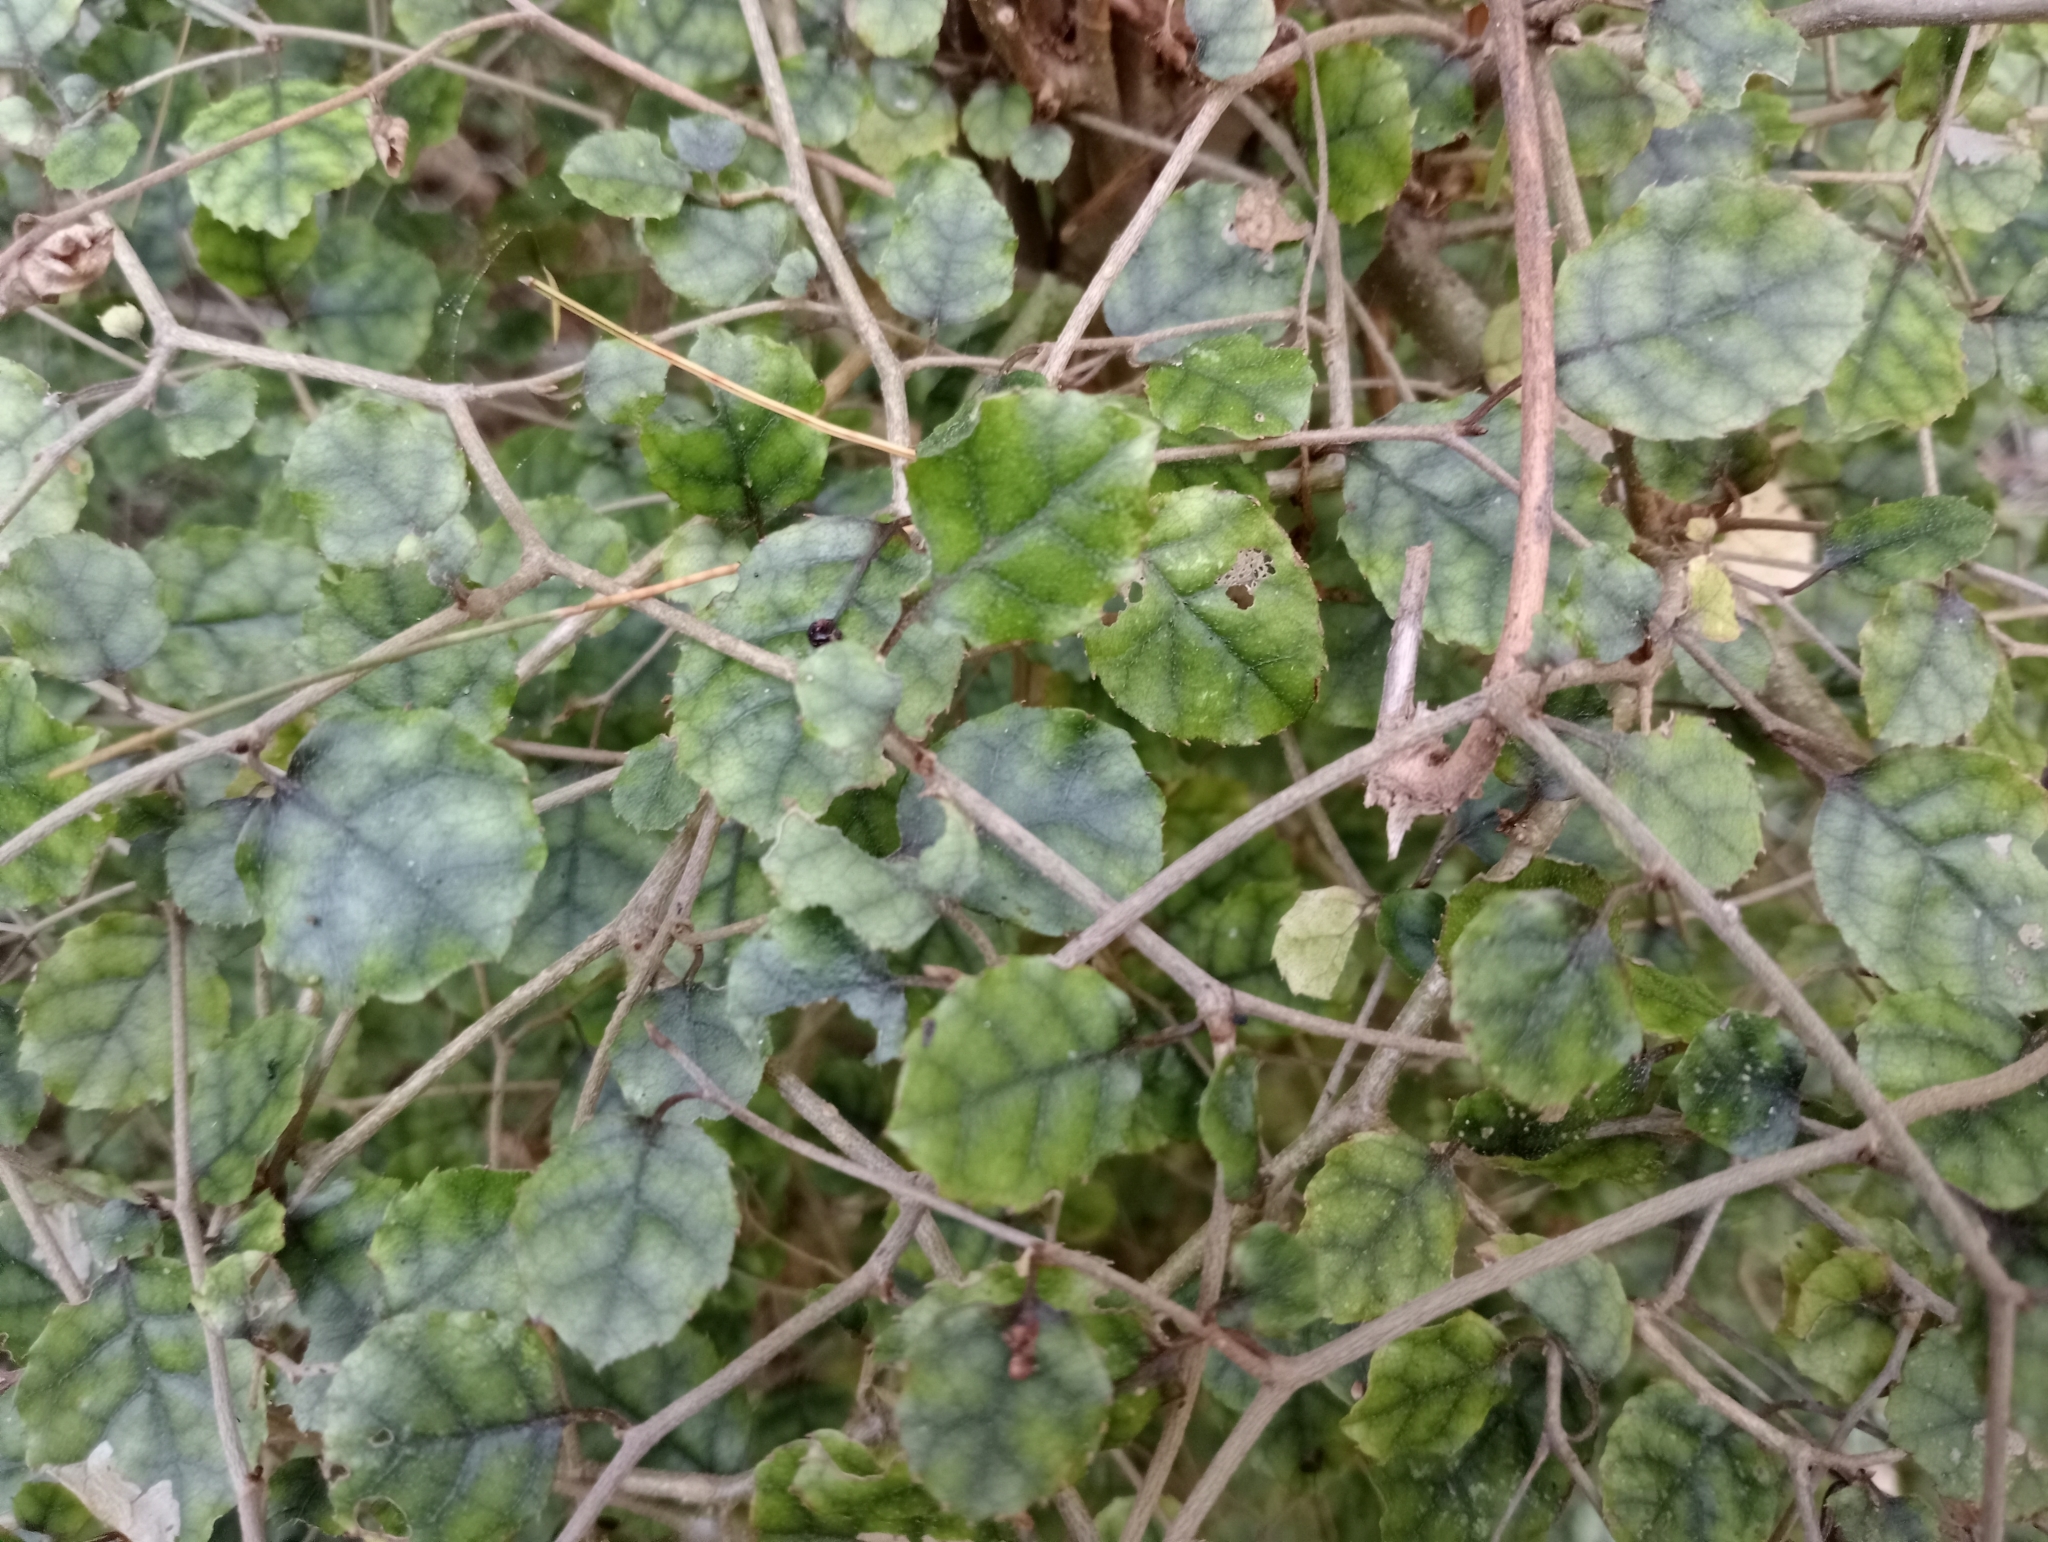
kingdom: Plantae
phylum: Tracheophyta
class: Magnoliopsida
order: Asterales
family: Rousseaceae
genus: Carpodetus
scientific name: Carpodetus serratus
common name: White mapau
